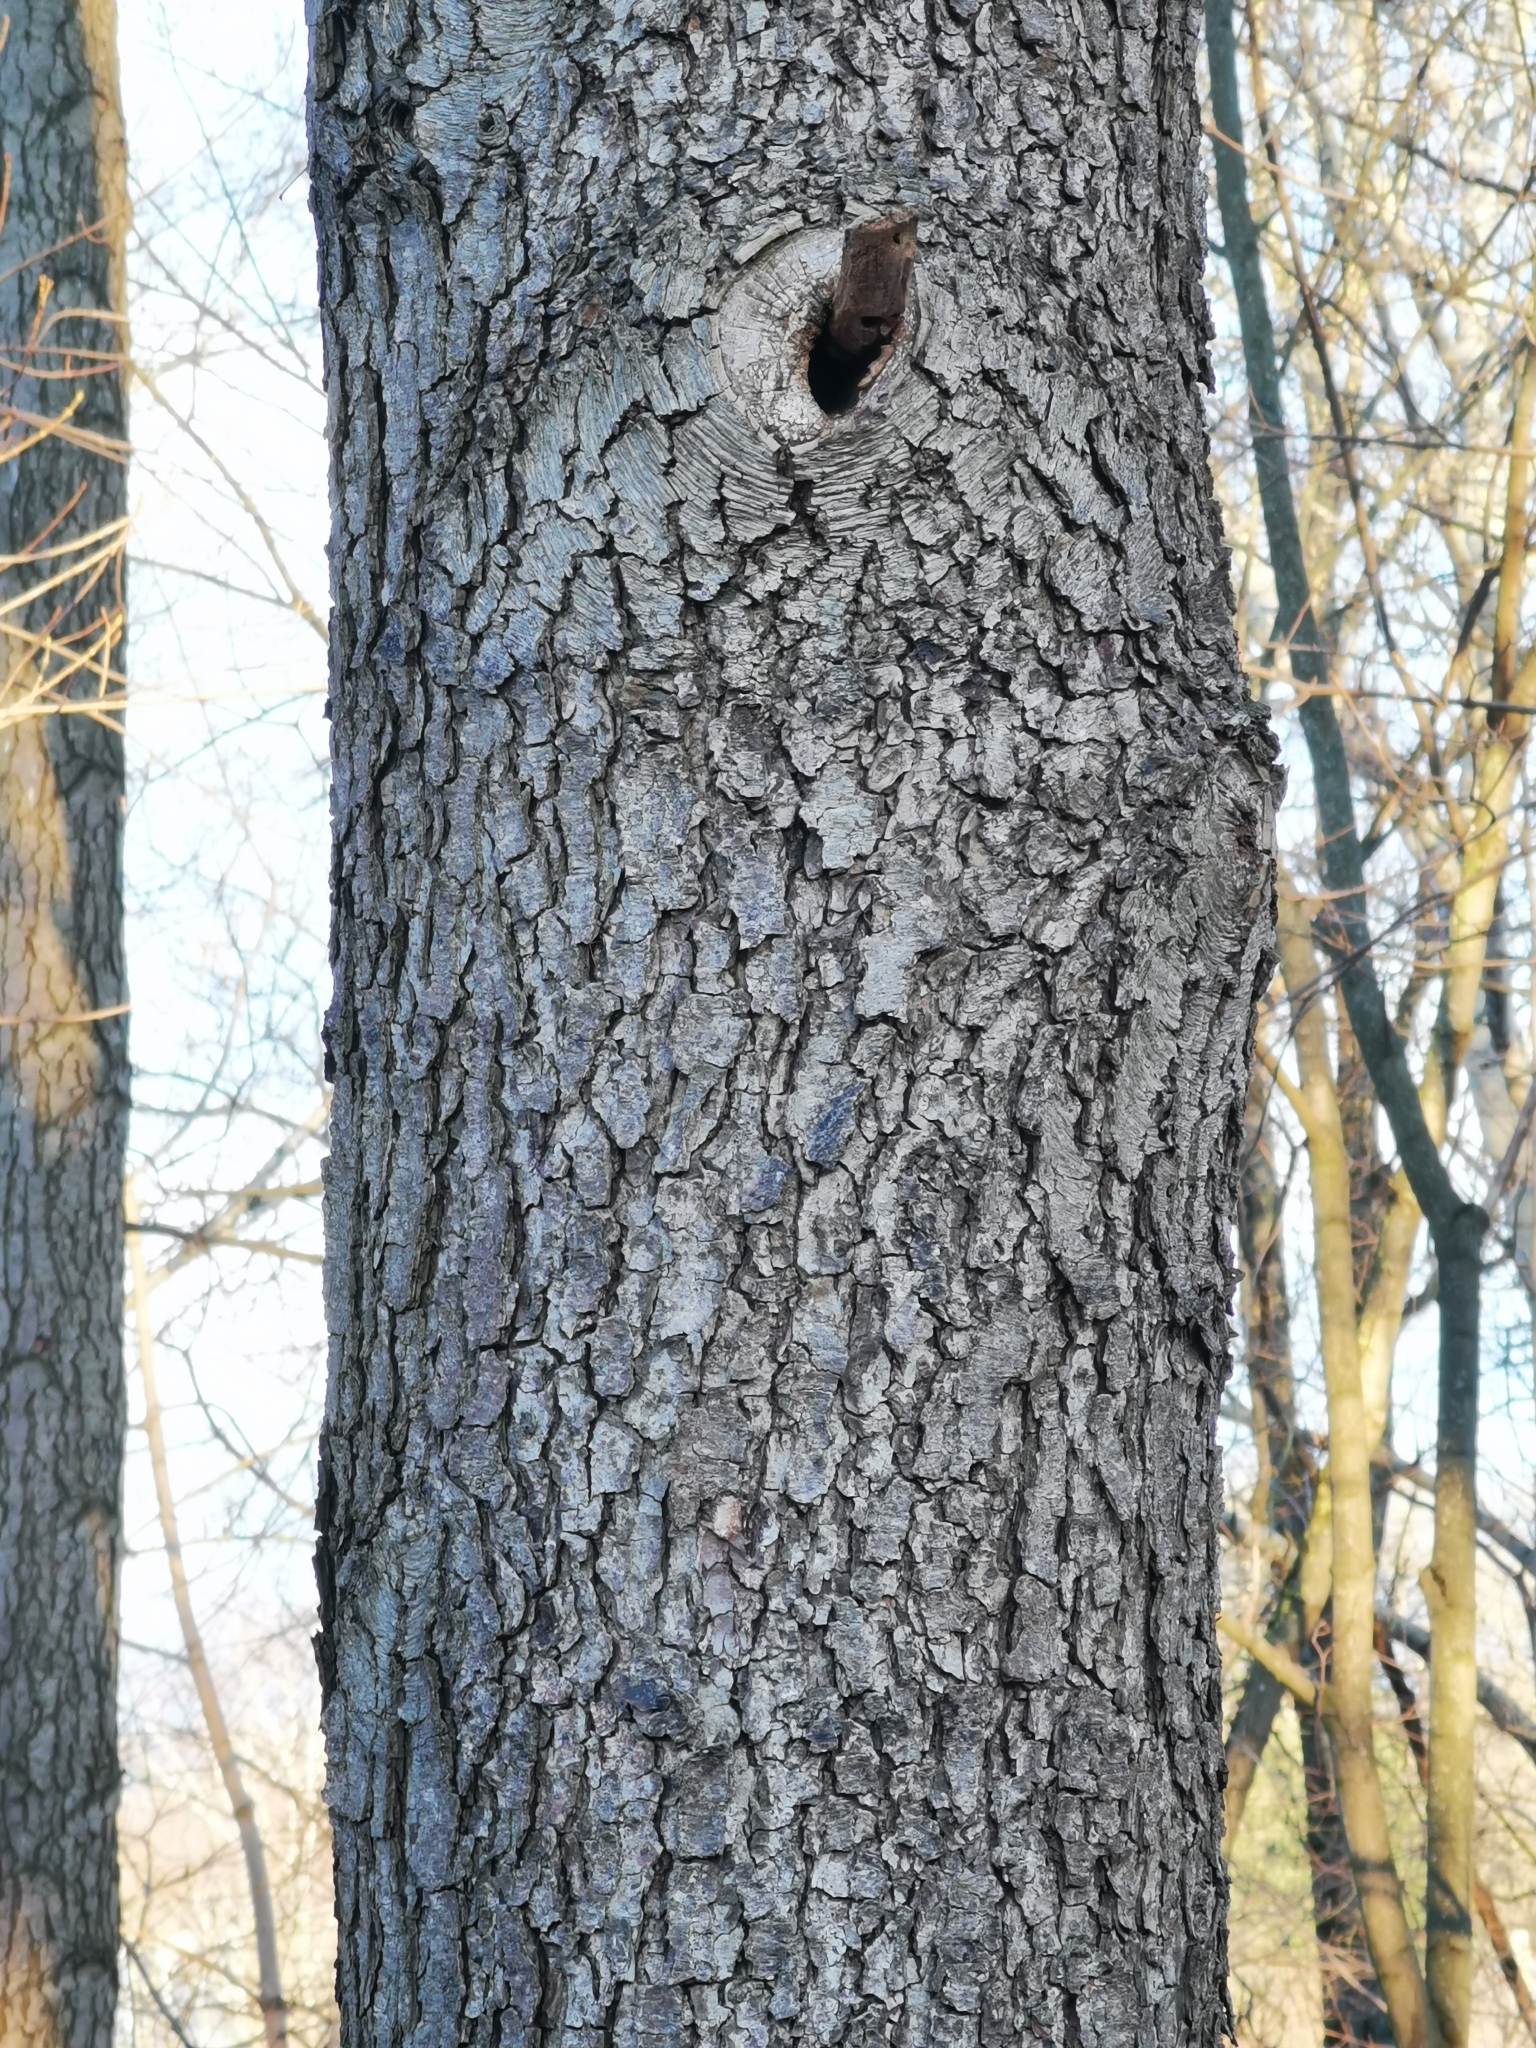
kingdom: Plantae
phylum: Tracheophyta
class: Magnoliopsida
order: Fagales
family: Betulaceae
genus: Alnus
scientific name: Alnus glutinosa
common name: Black alder
